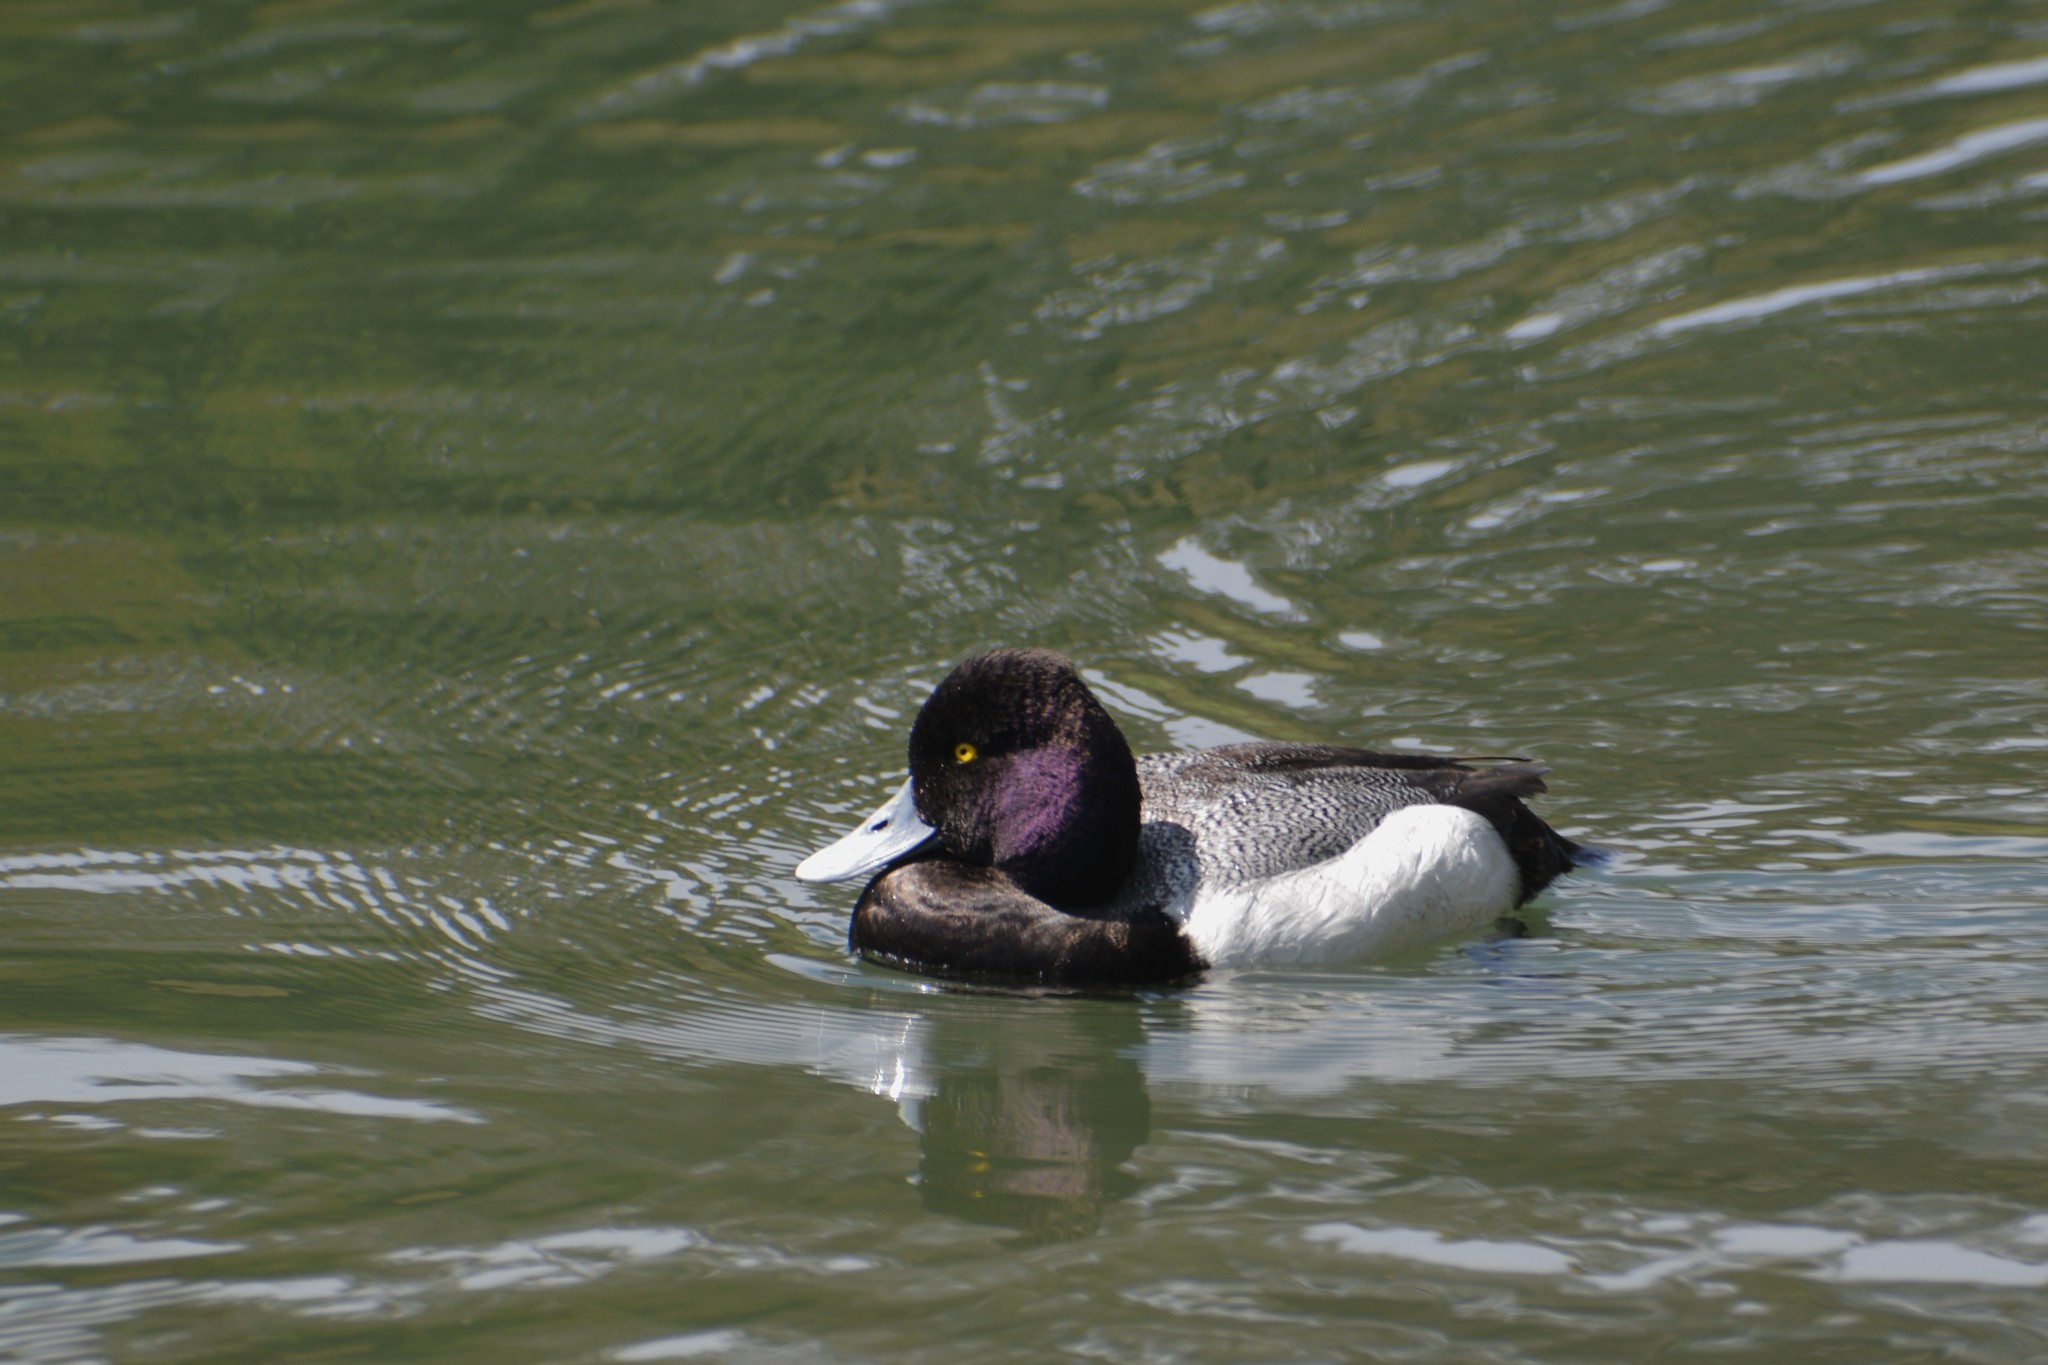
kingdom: Animalia
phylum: Chordata
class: Aves
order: Anseriformes
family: Anatidae
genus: Aythya
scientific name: Aythya affinis
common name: Lesser scaup
